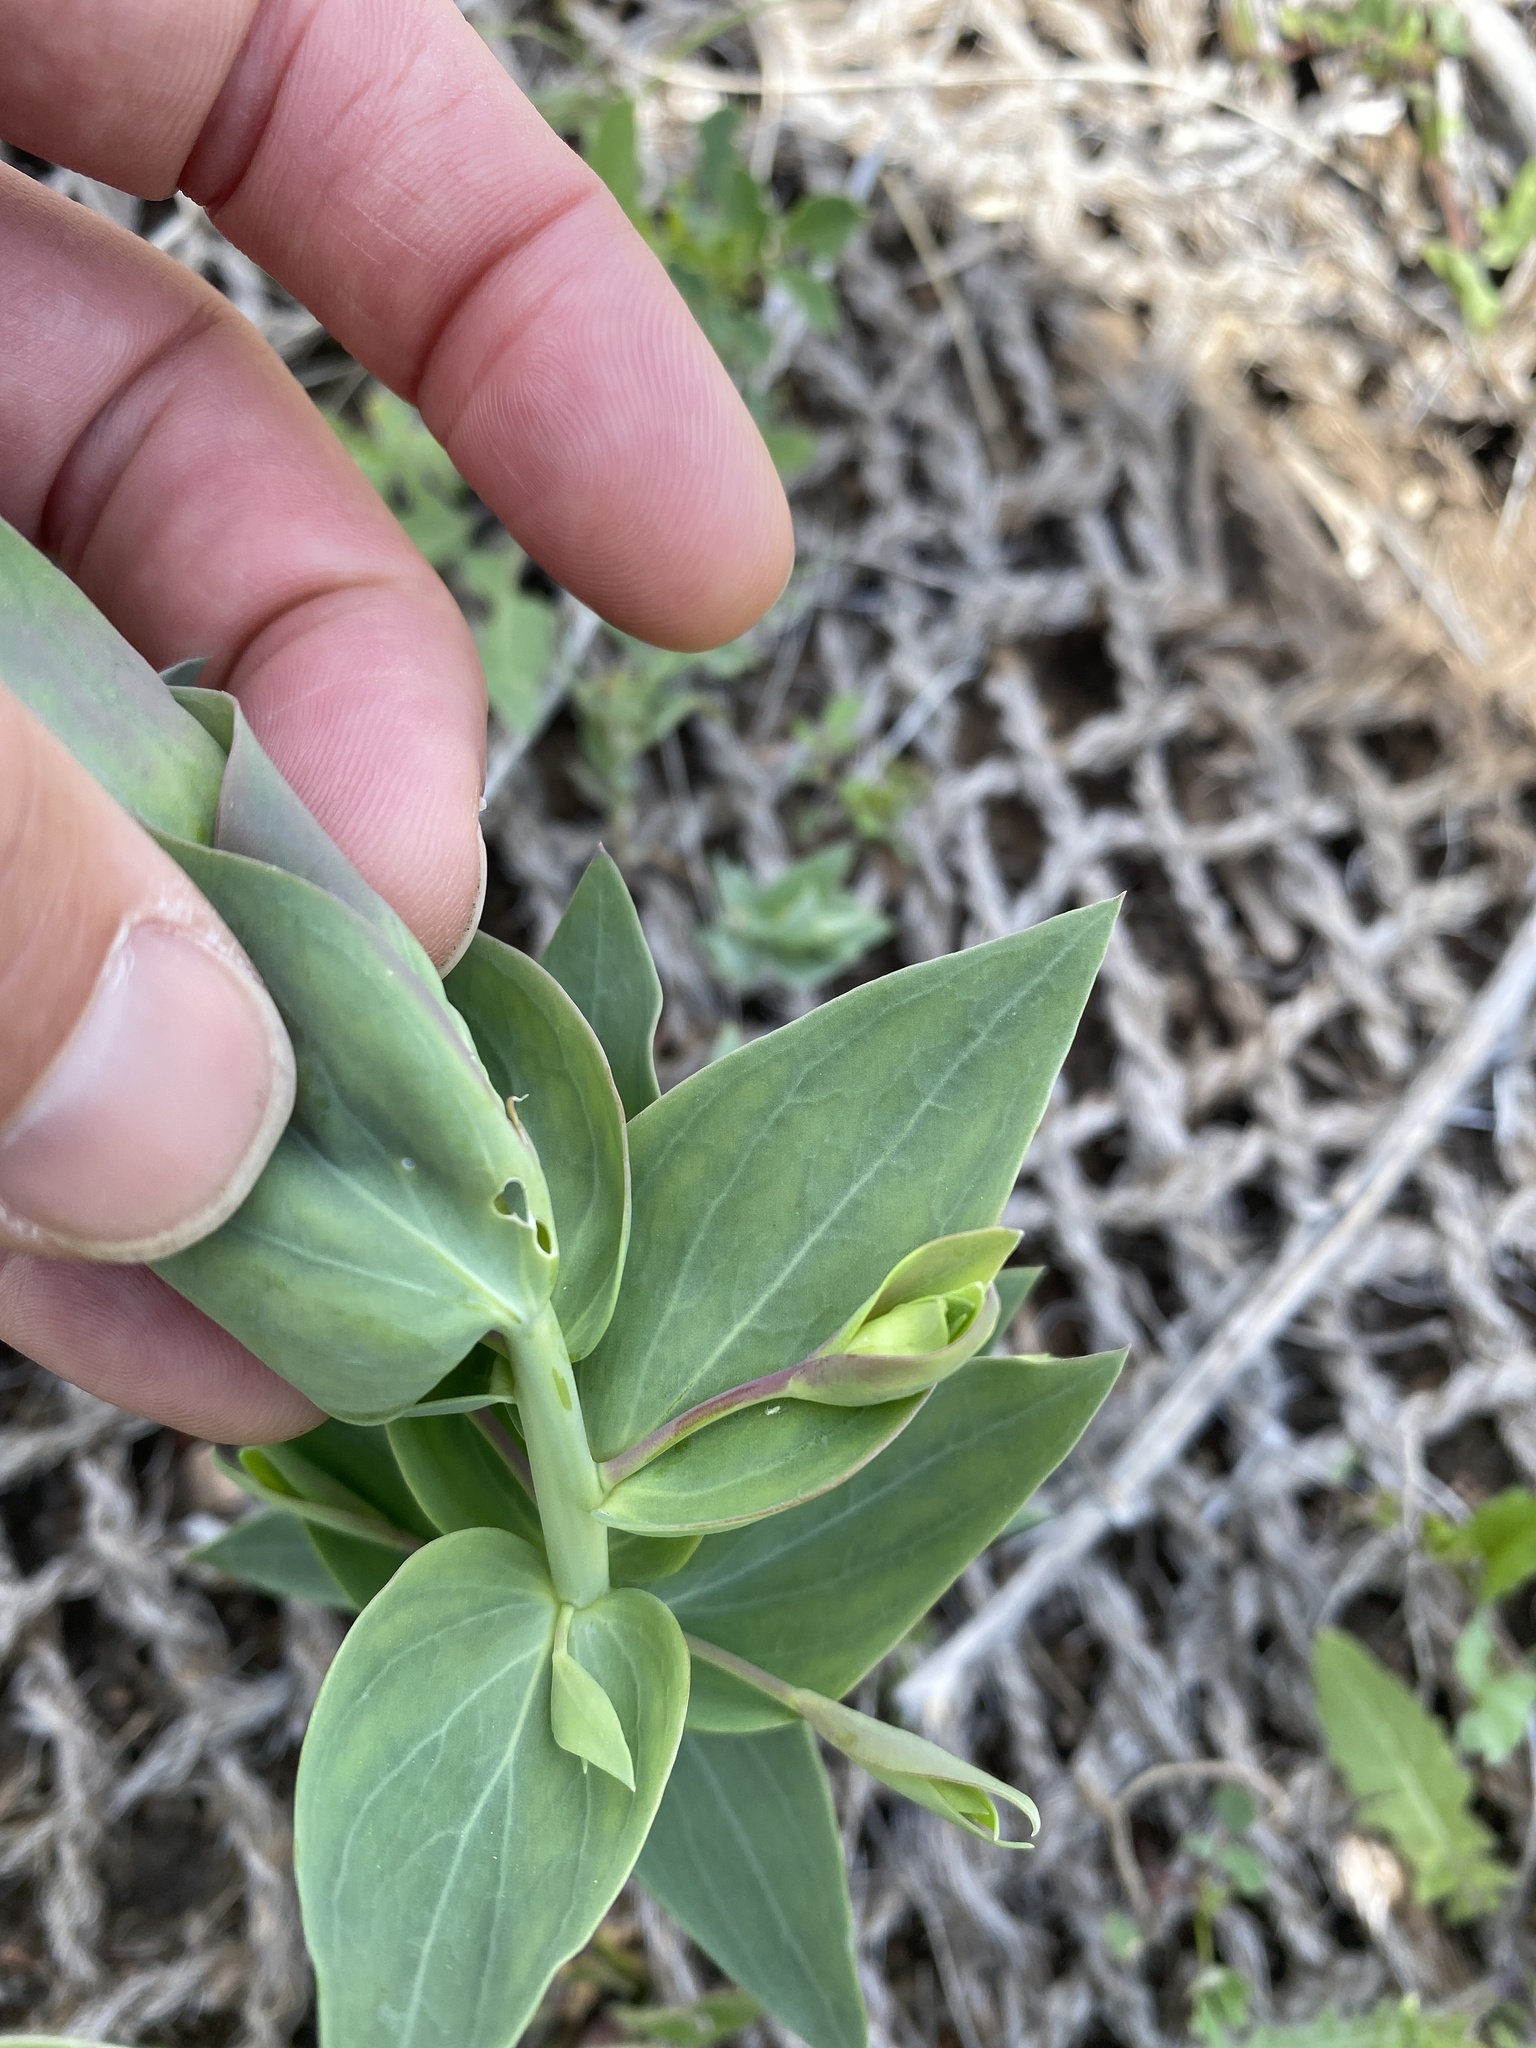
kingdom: Plantae
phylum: Tracheophyta
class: Magnoliopsida
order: Lamiales
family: Plantaginaceae
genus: Linaria
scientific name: Linaria dalmatica
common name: Dalmatian toadflax
